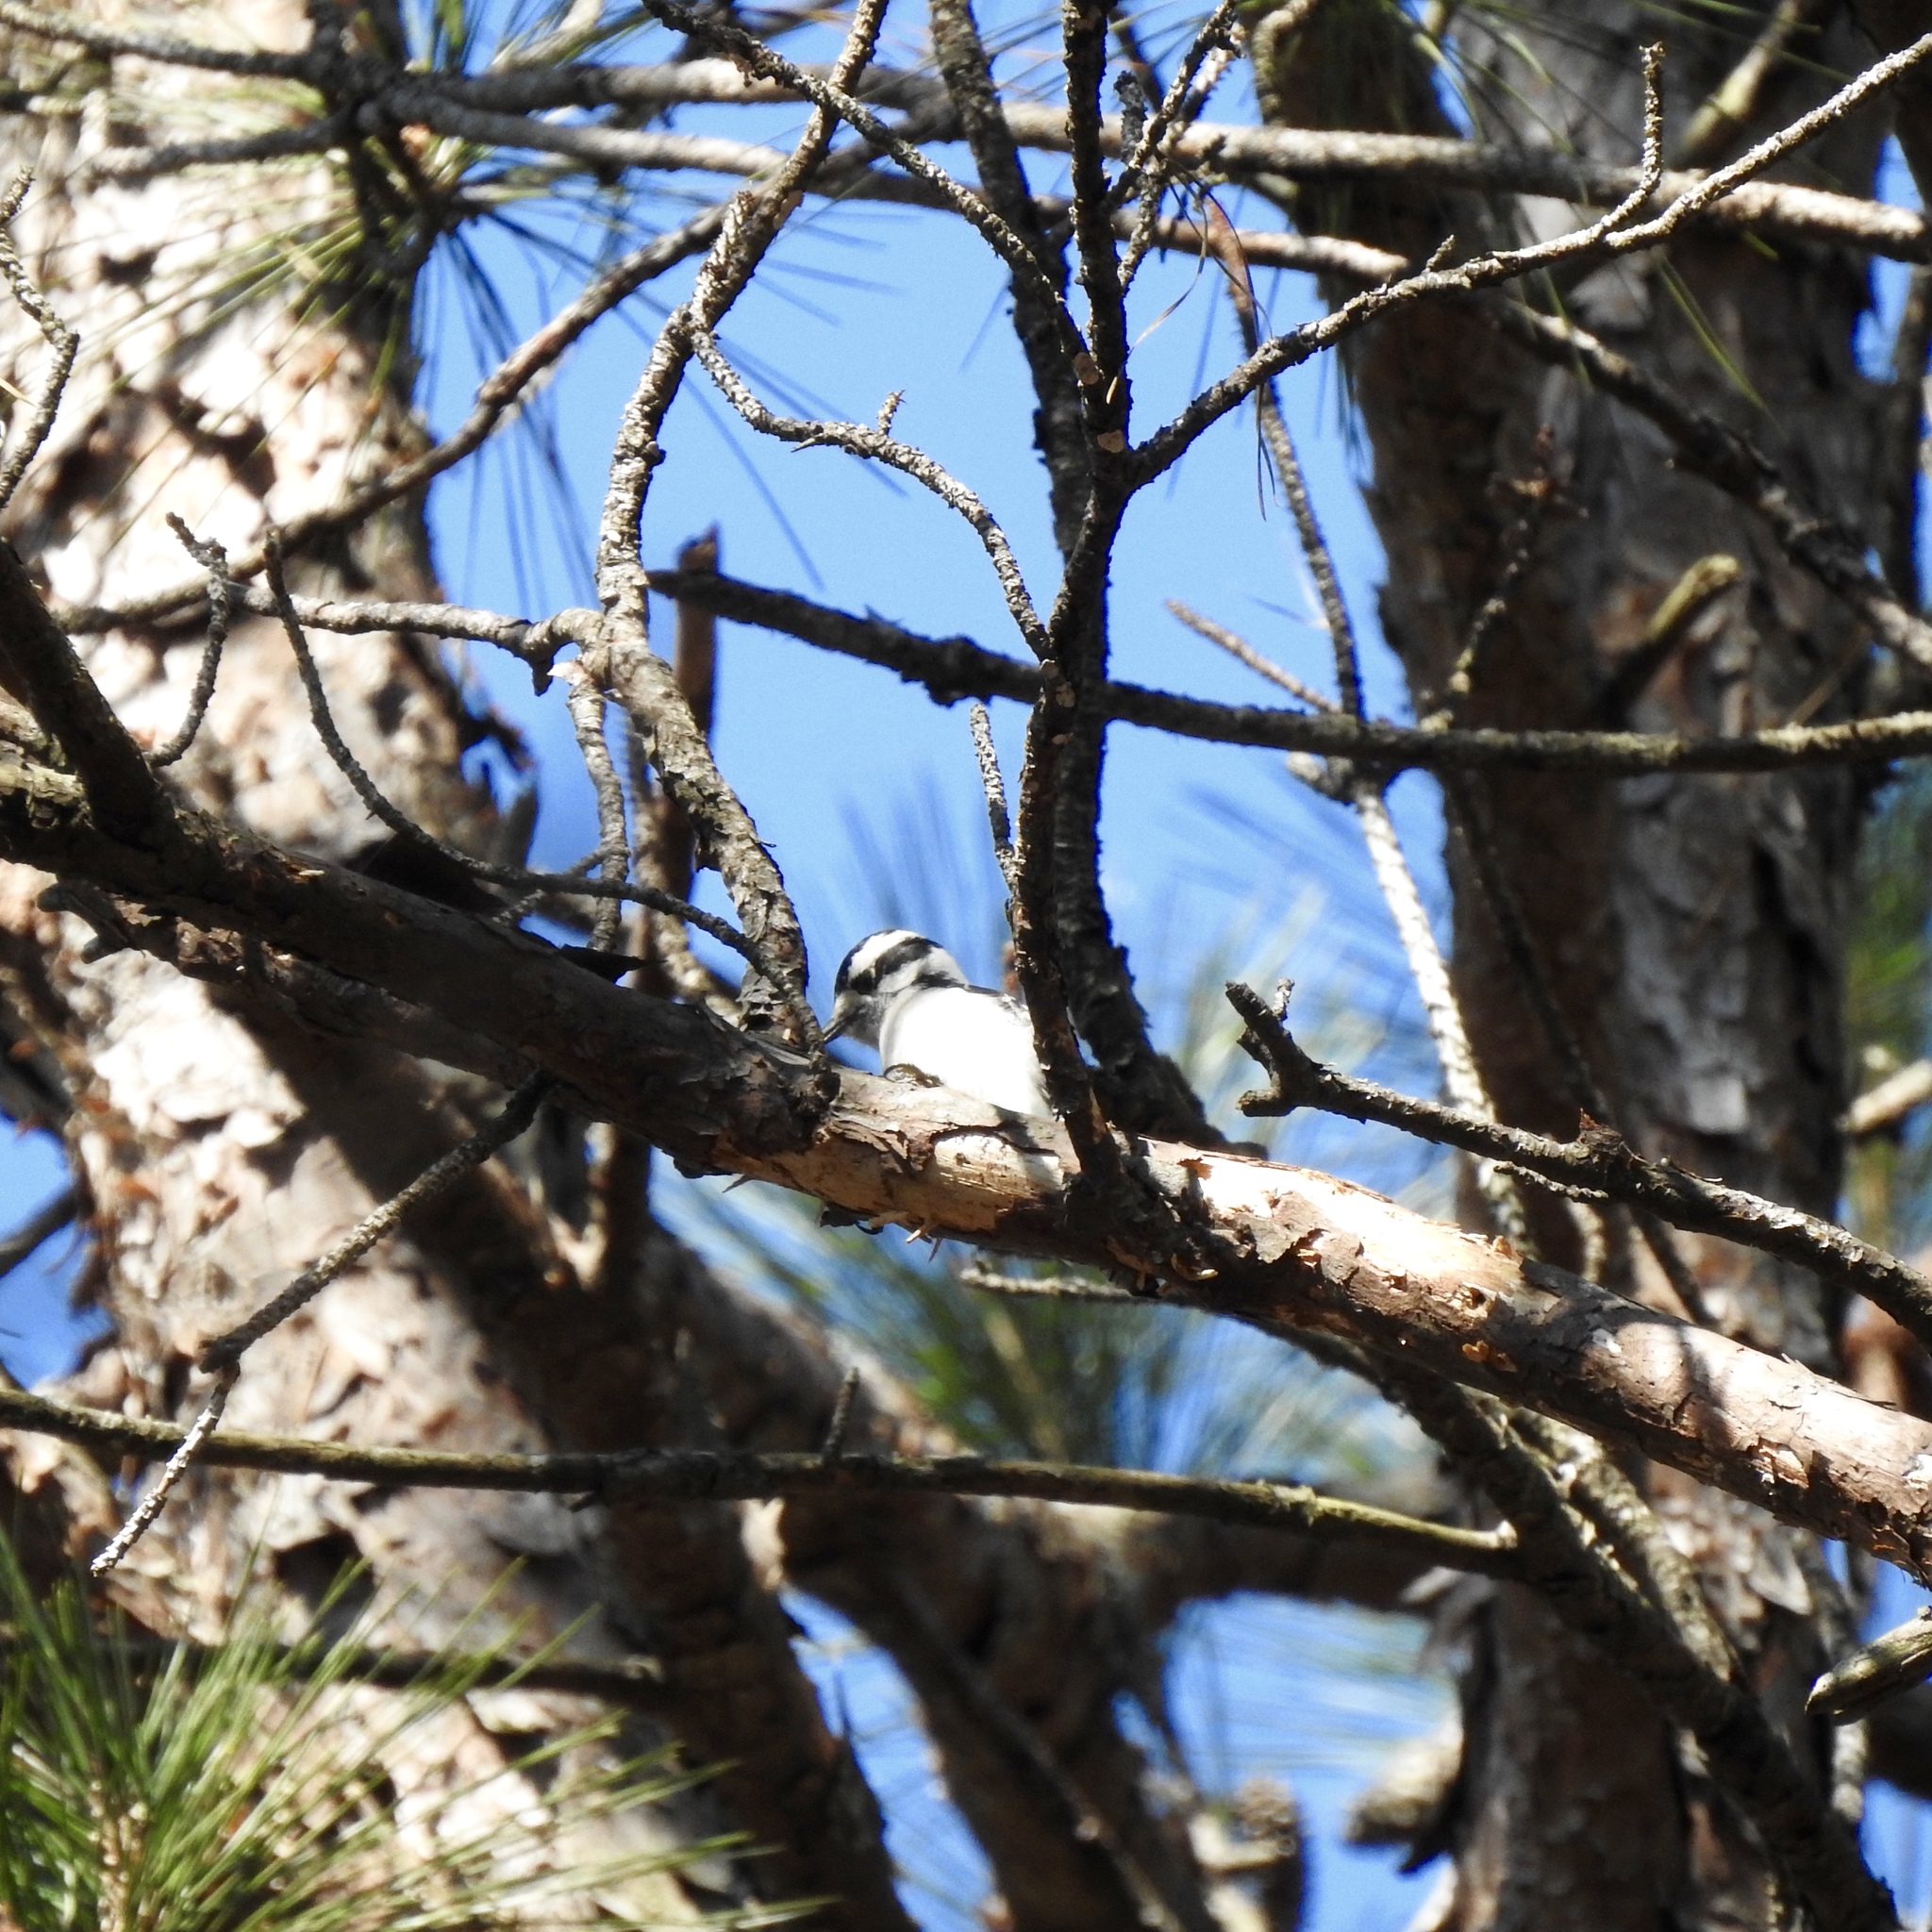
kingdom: Animalia
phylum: Chordata
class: Aves
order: Piciformes
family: Picidae
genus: Dryobates
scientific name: Dryobates pubescens
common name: Downy woodpecker
